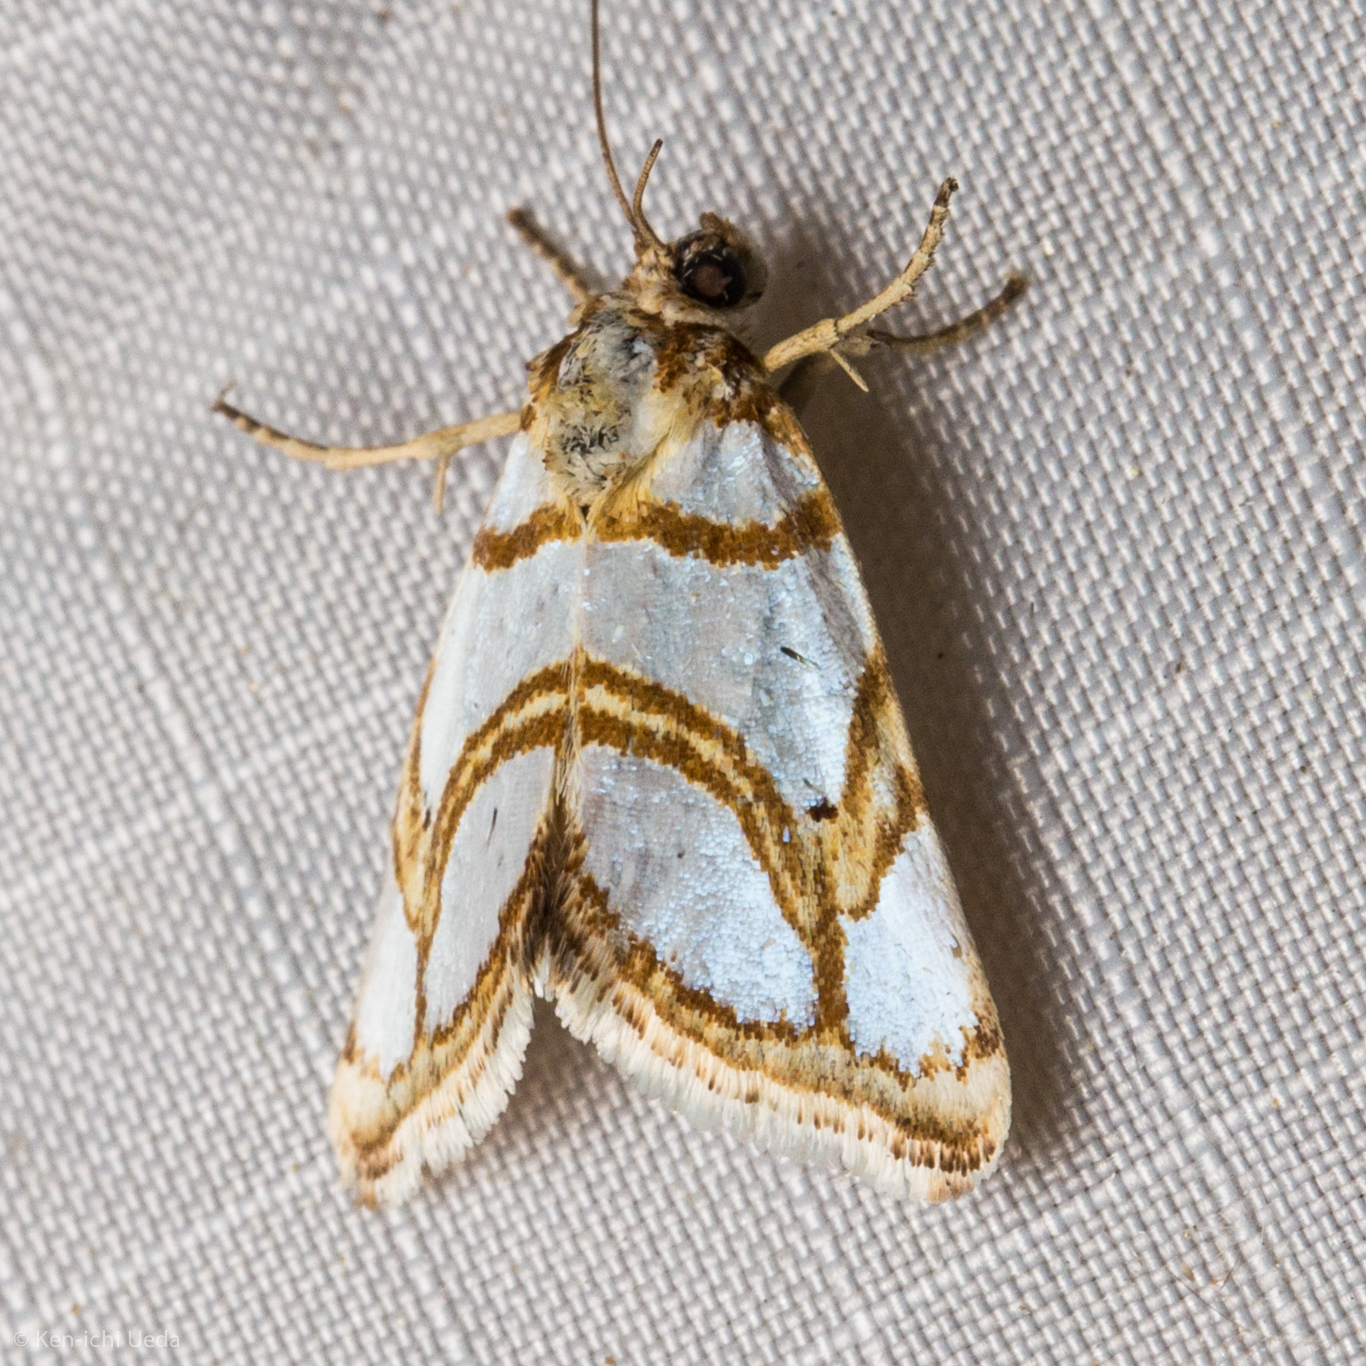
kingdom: Animalia
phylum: Arthropoda
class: Insecta
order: Lepidoptera
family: Noctuidae
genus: Argentostiria
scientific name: Argentostiria koebelei
